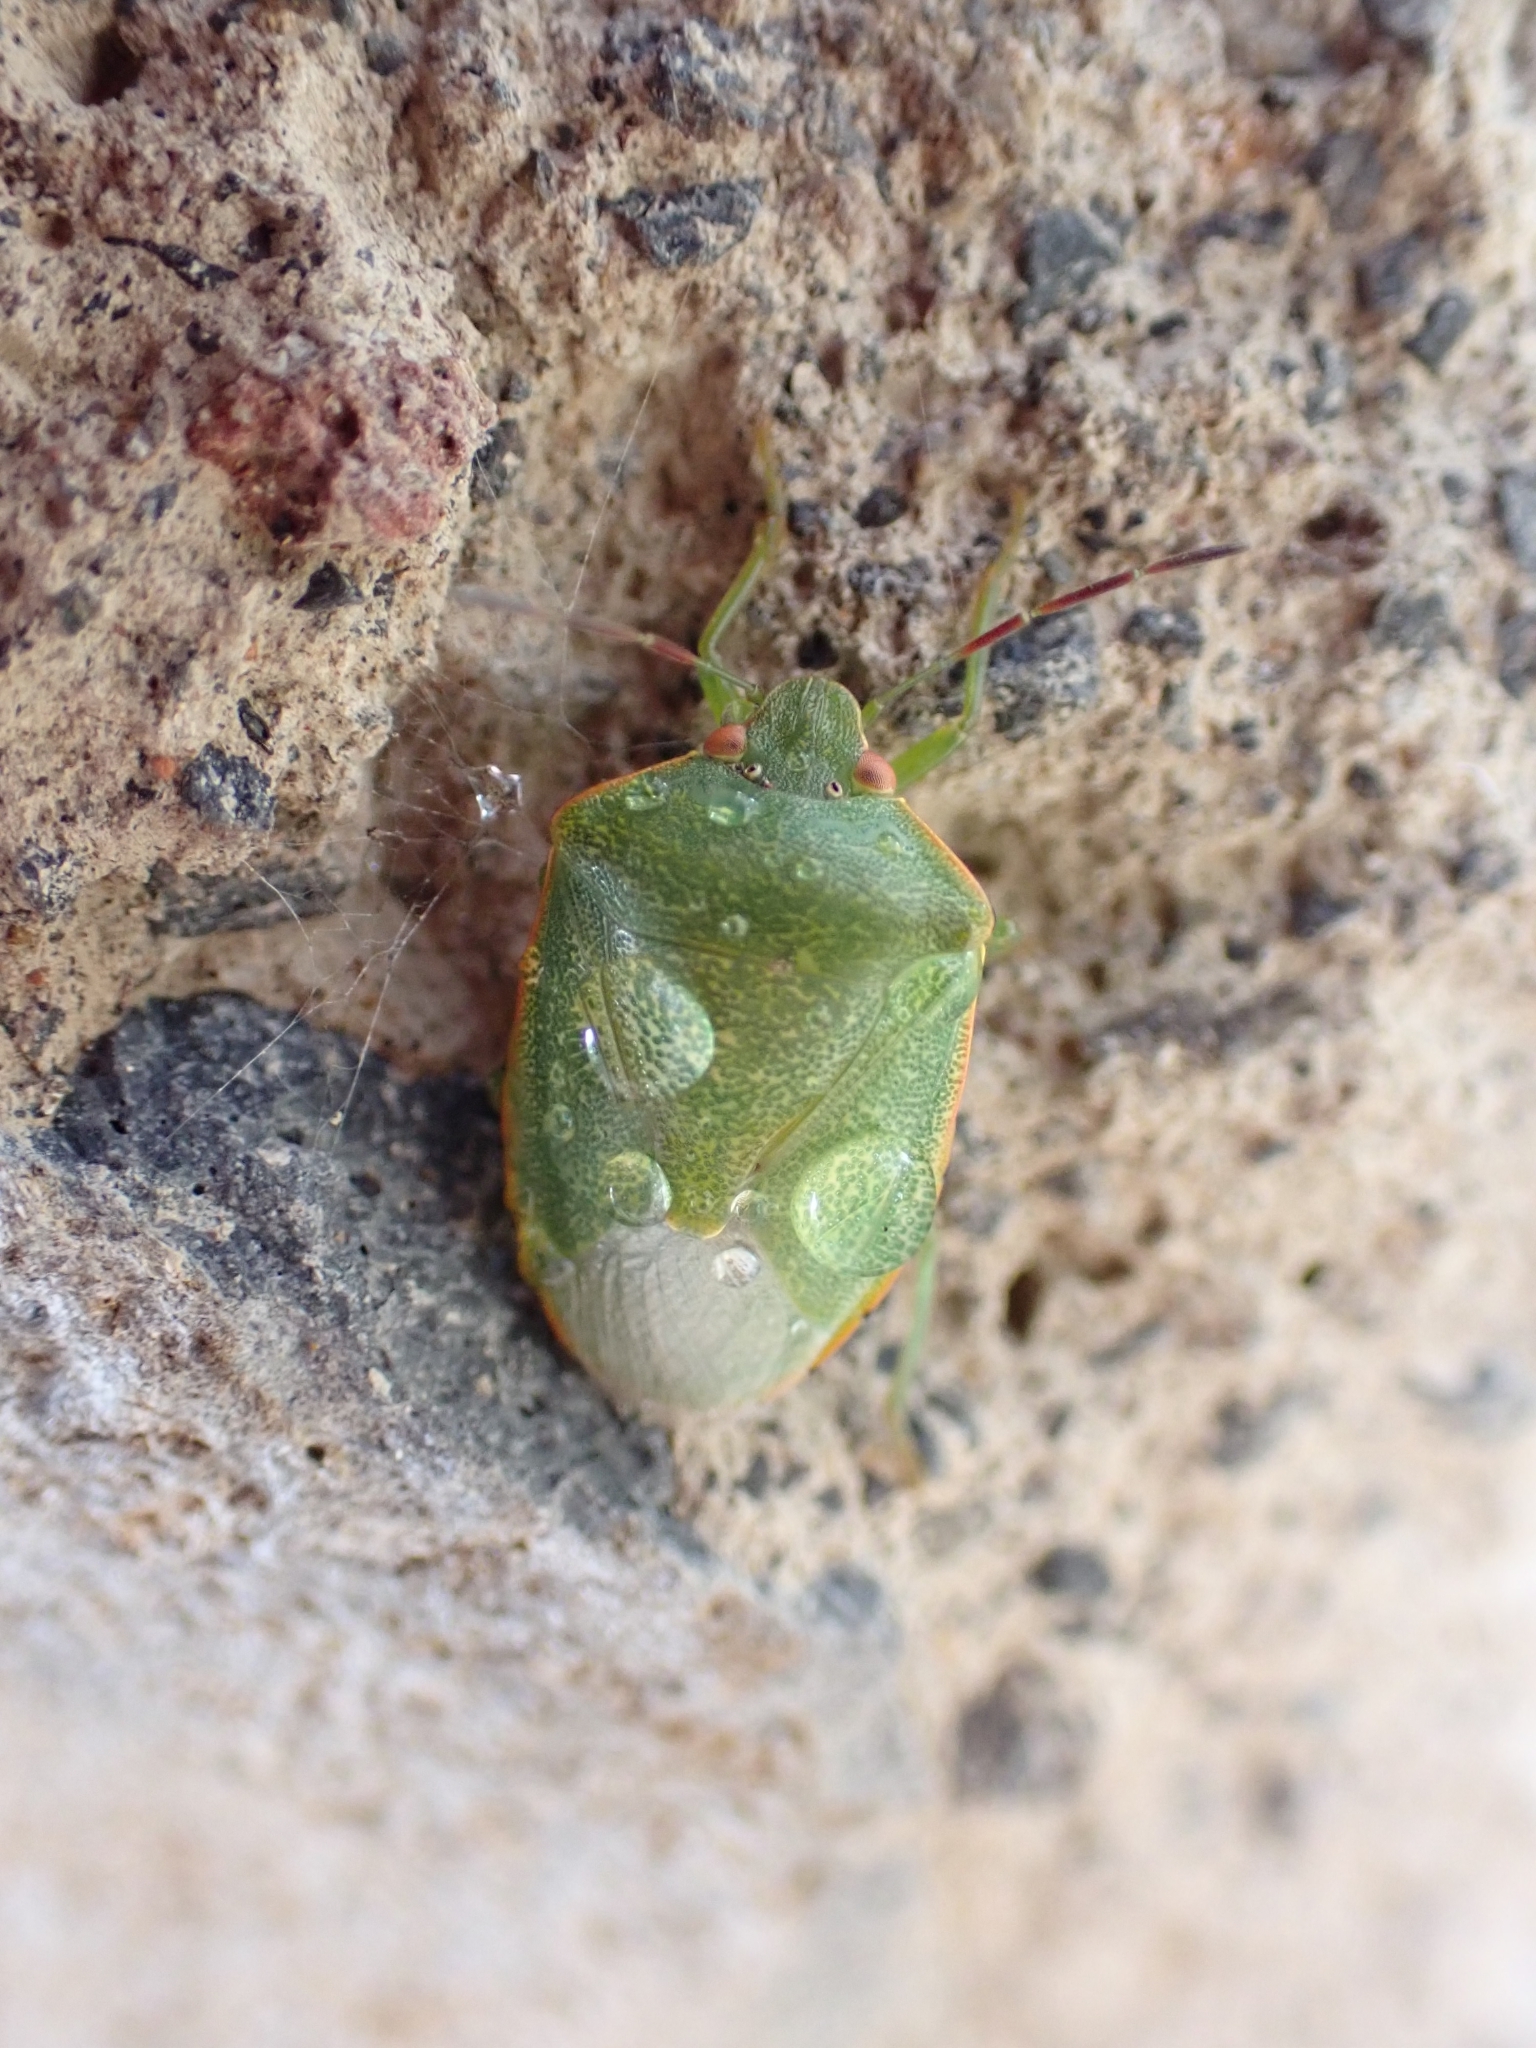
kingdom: Animalia
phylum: Arthropoda
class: Insecta
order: Hemiptera
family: Pentatomidae
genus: Acrosternum
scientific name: Acrosternum rubescens
